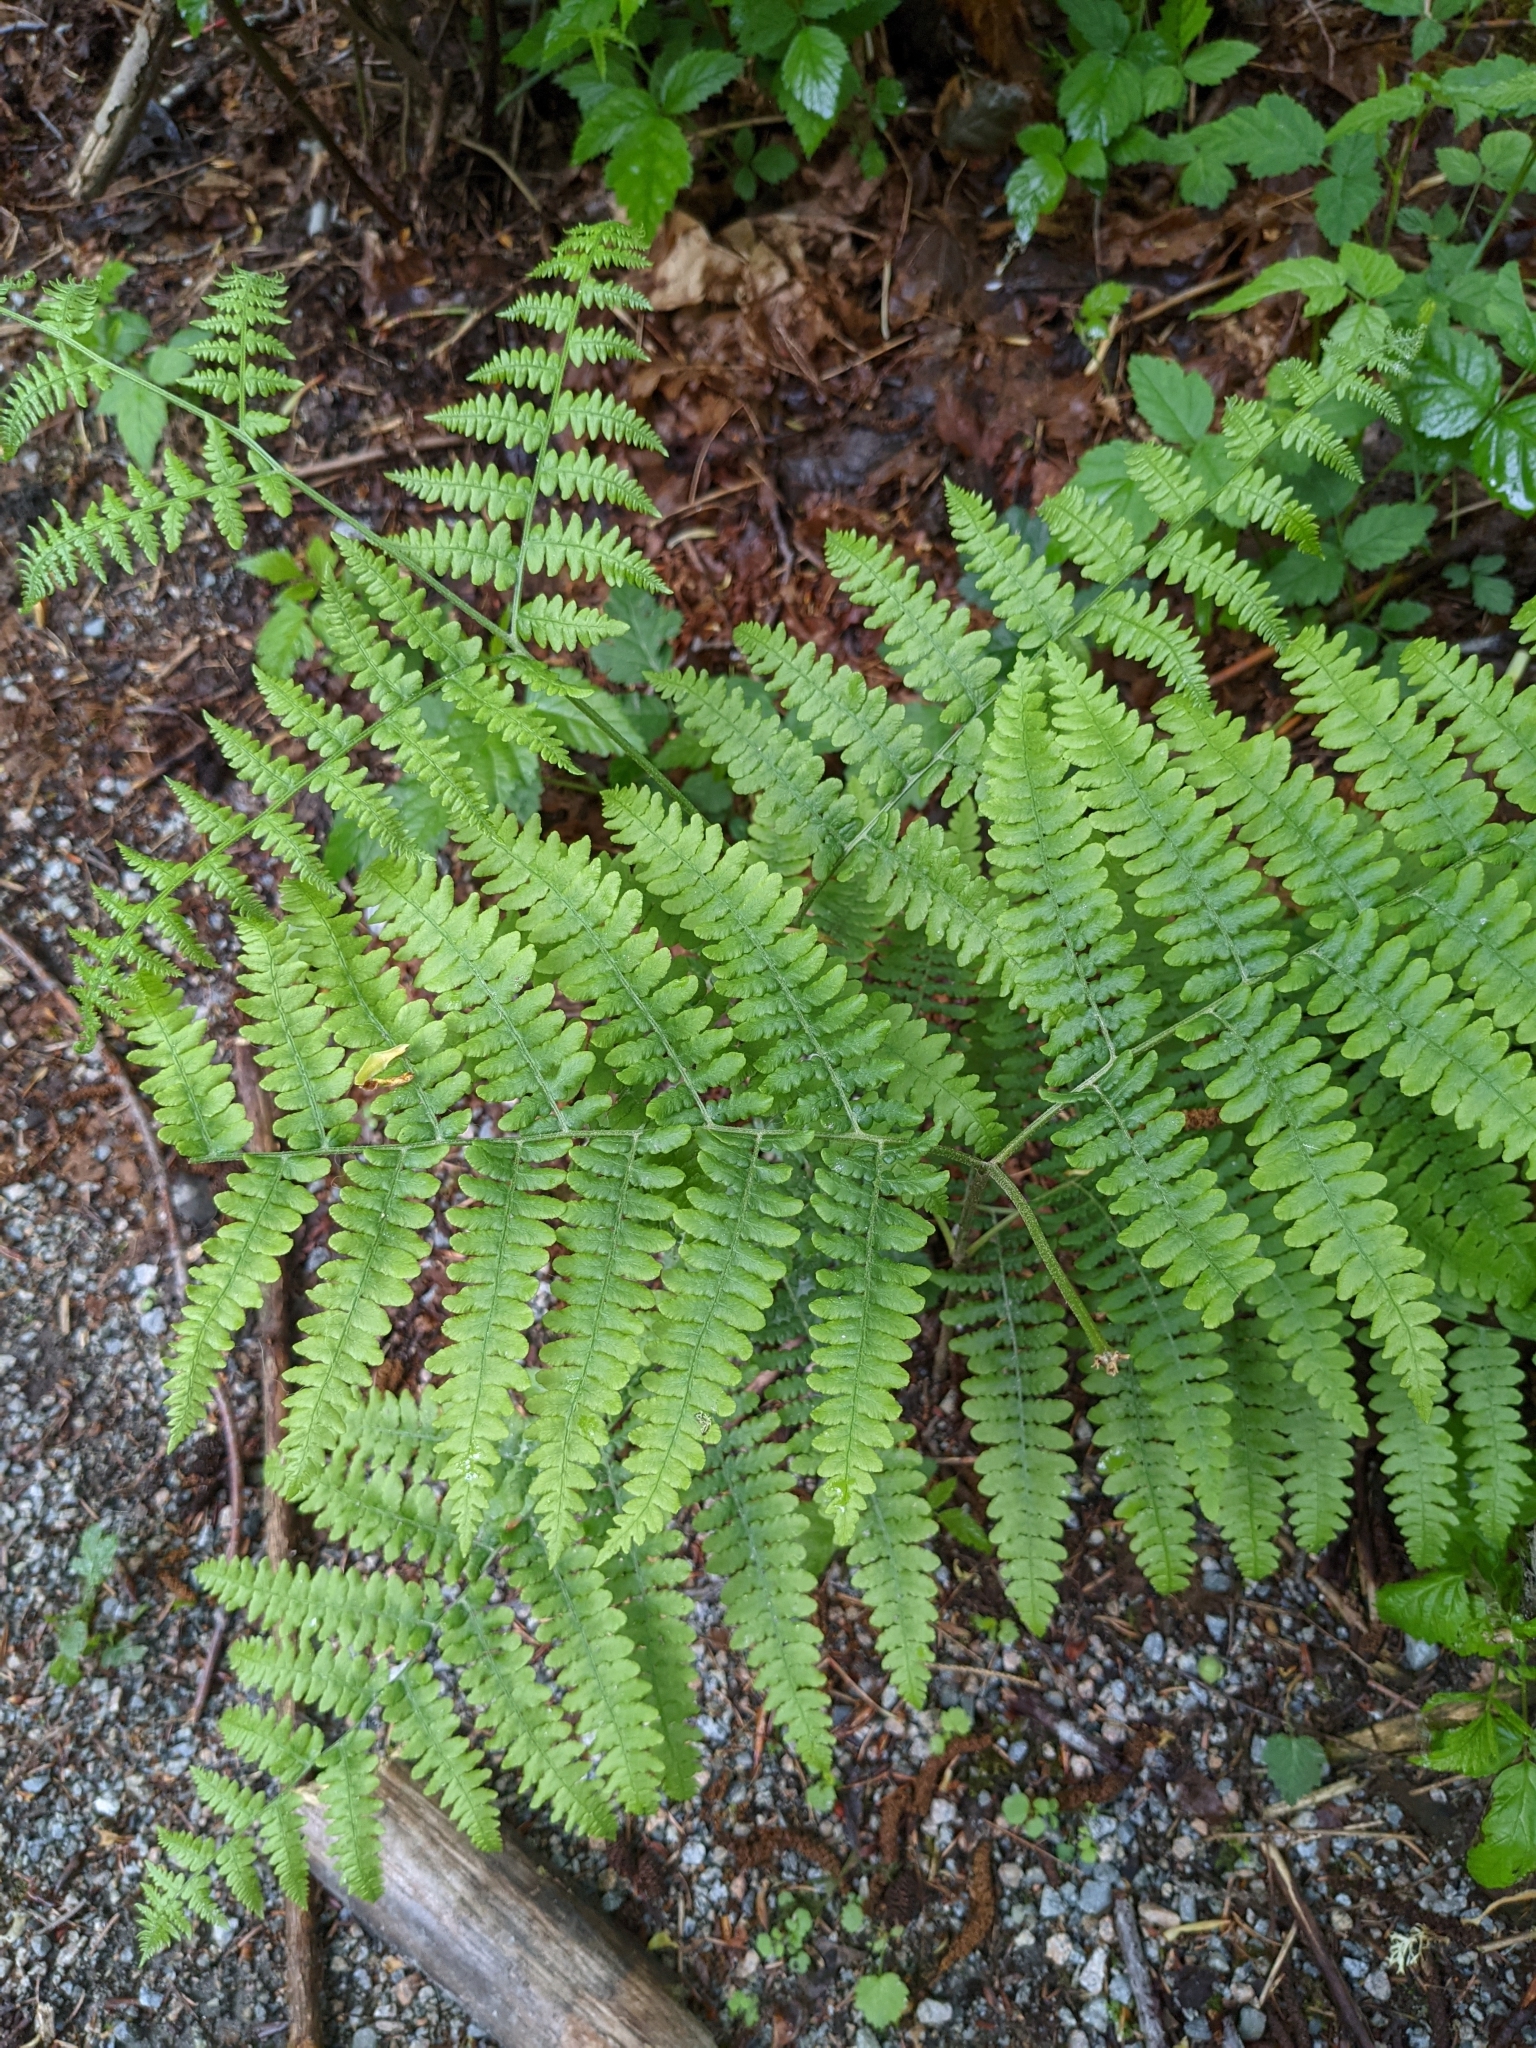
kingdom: Plantae
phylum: Tracheophyta
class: Polypodiopsida
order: Polypodiales
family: Dennstaedtiaceae
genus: Pteridium
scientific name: Pteridium aquilinum
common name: Bracken
